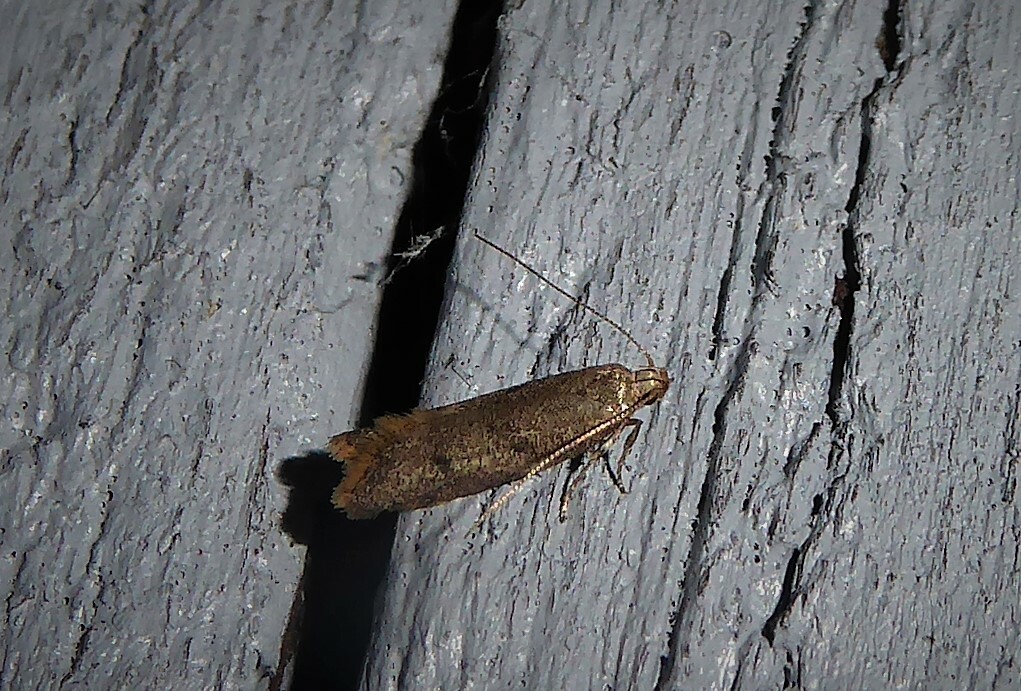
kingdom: Animalia
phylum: Arthropoda
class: Insecta
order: Lepidoptera
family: Oecophoridae
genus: Gymnobathra
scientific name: Gymnobathra tholodella
